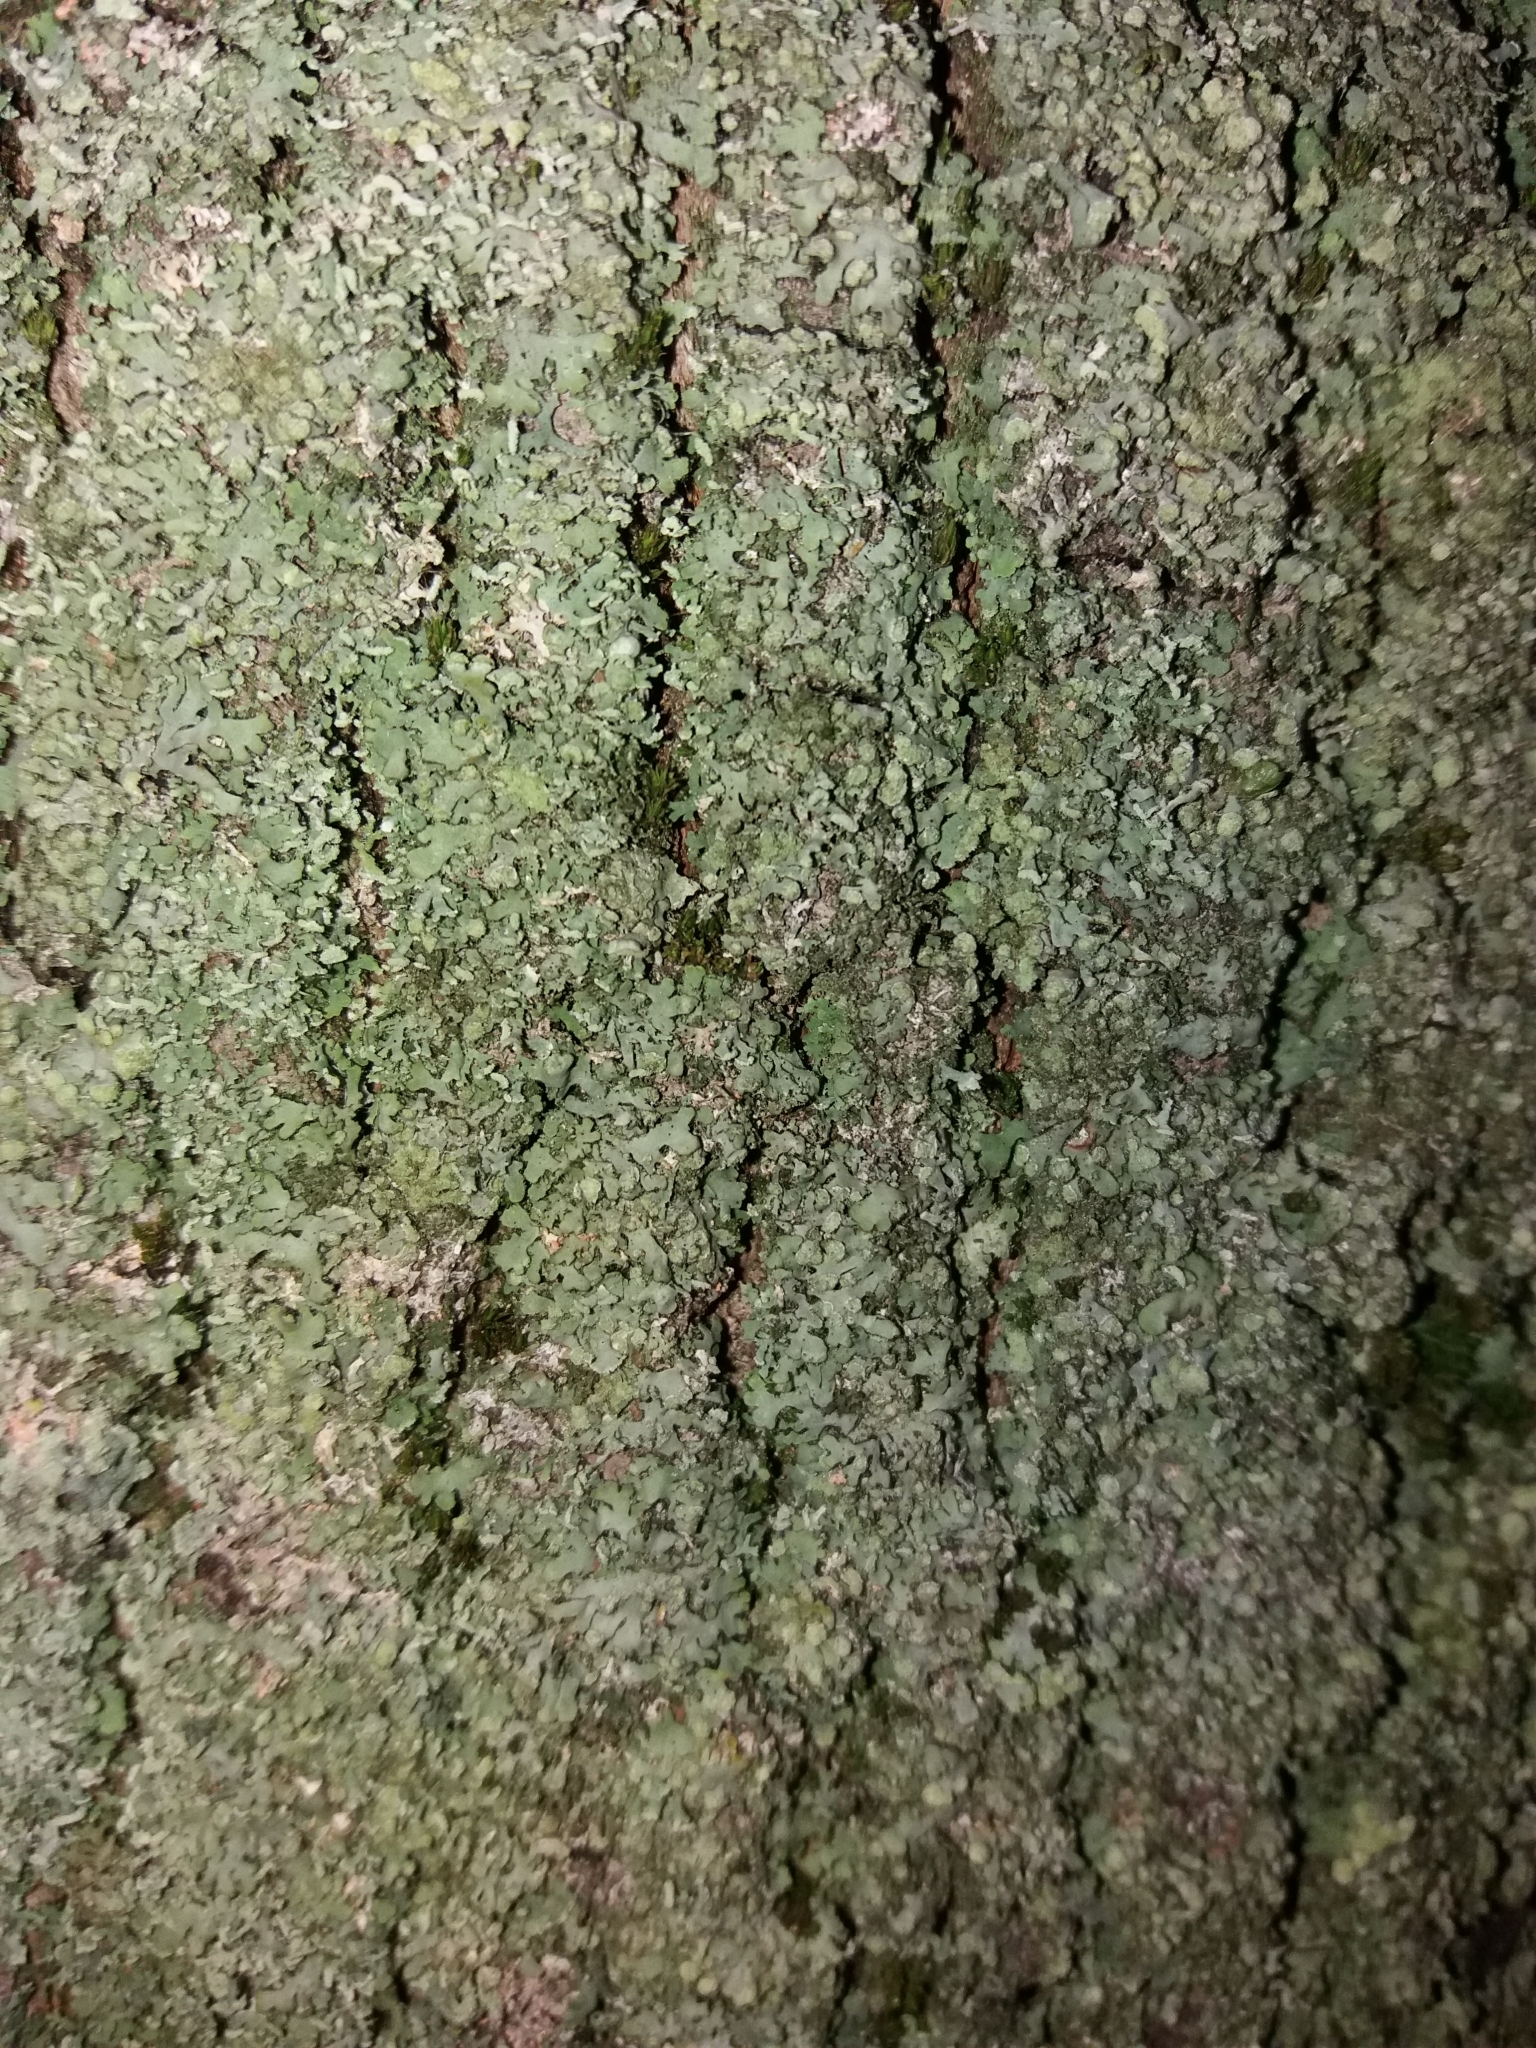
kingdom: Fungi
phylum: Ascomycota
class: Lecanoromycetes
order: Caliciales
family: Physciaceae
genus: Phaeophyscia
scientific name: Phaeophyscia orbicularis
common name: Mealy shadow lichen
